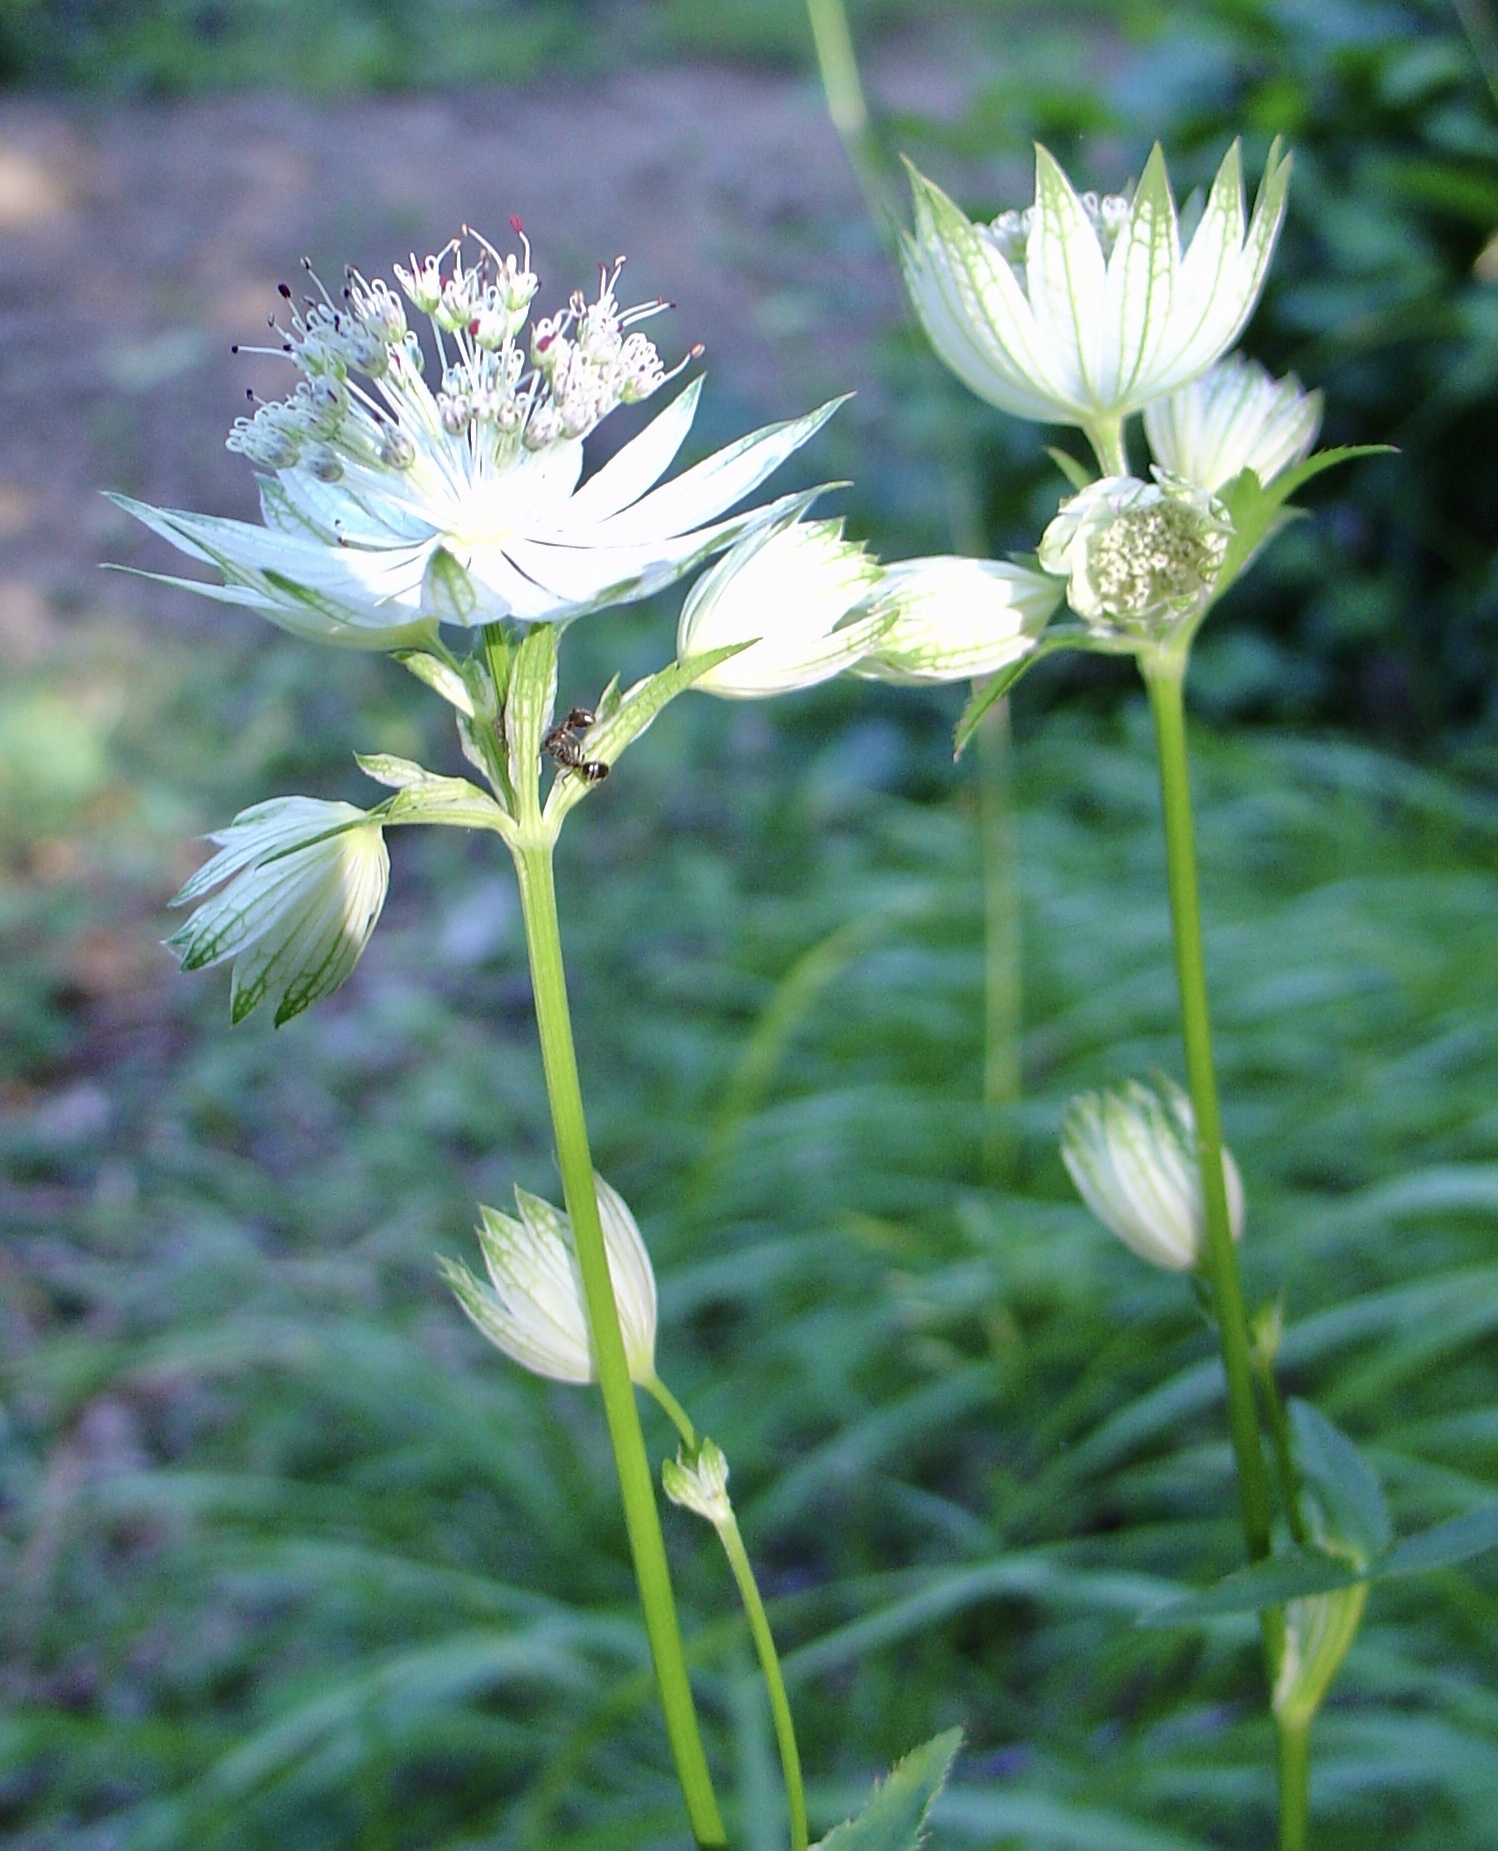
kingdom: Plantae
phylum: Tracheophyta
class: Magnoliopsida
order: Apiales
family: Apiaceae
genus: Astrantia
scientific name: Astrantia major
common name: Greater masterwort
